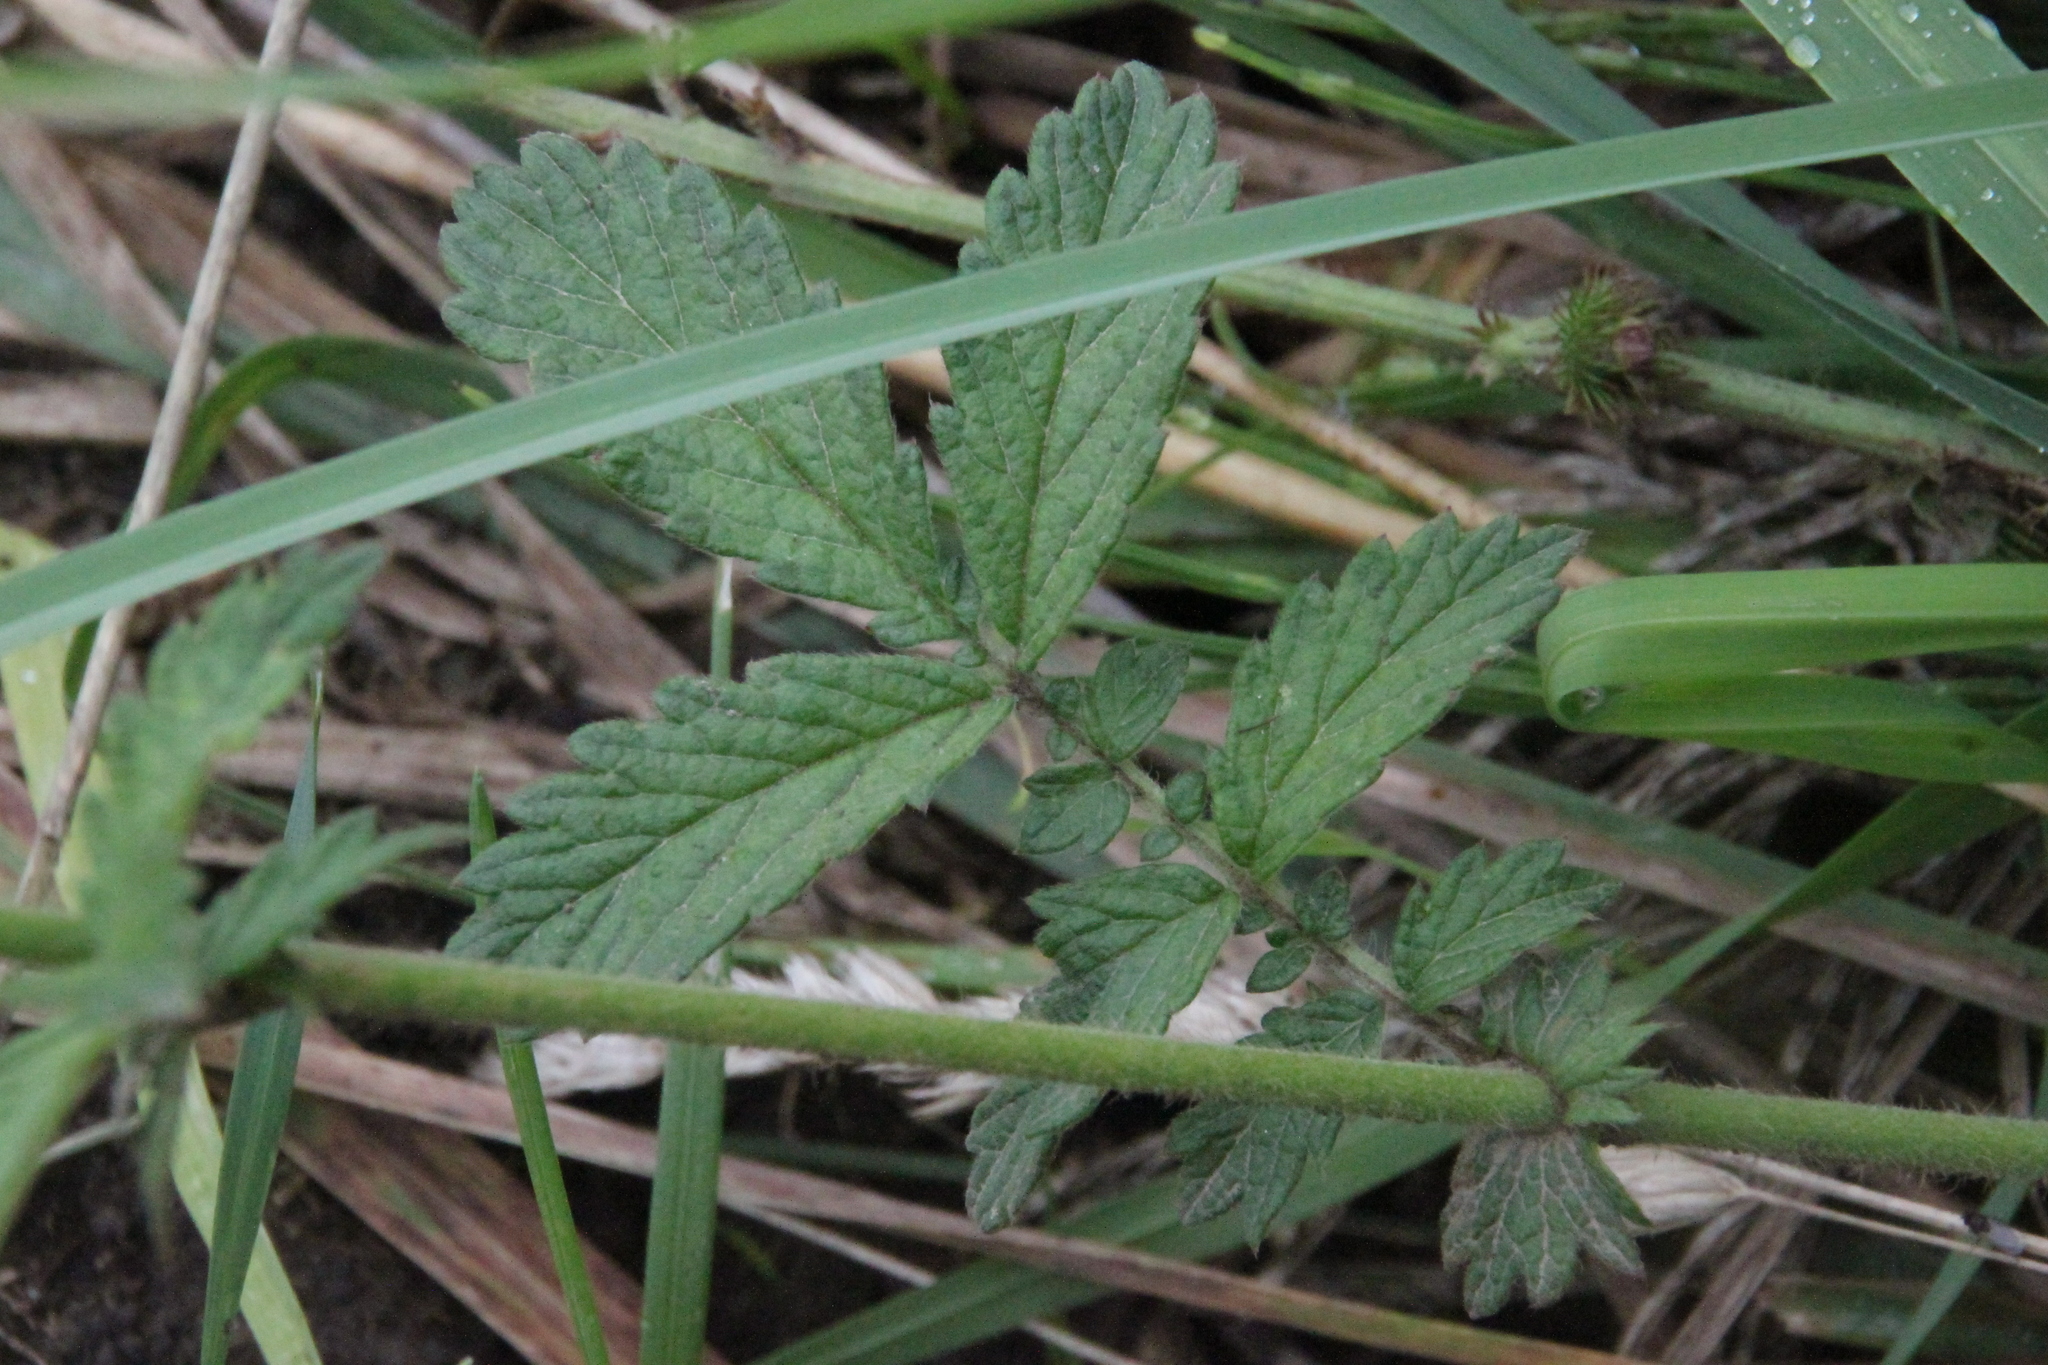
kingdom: Plantae
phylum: Tracheophyta
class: Magnoliopsida
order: Rosales
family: Rosaceae
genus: Agrimonia
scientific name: Agrimonia eupatoria
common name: Agrimony
